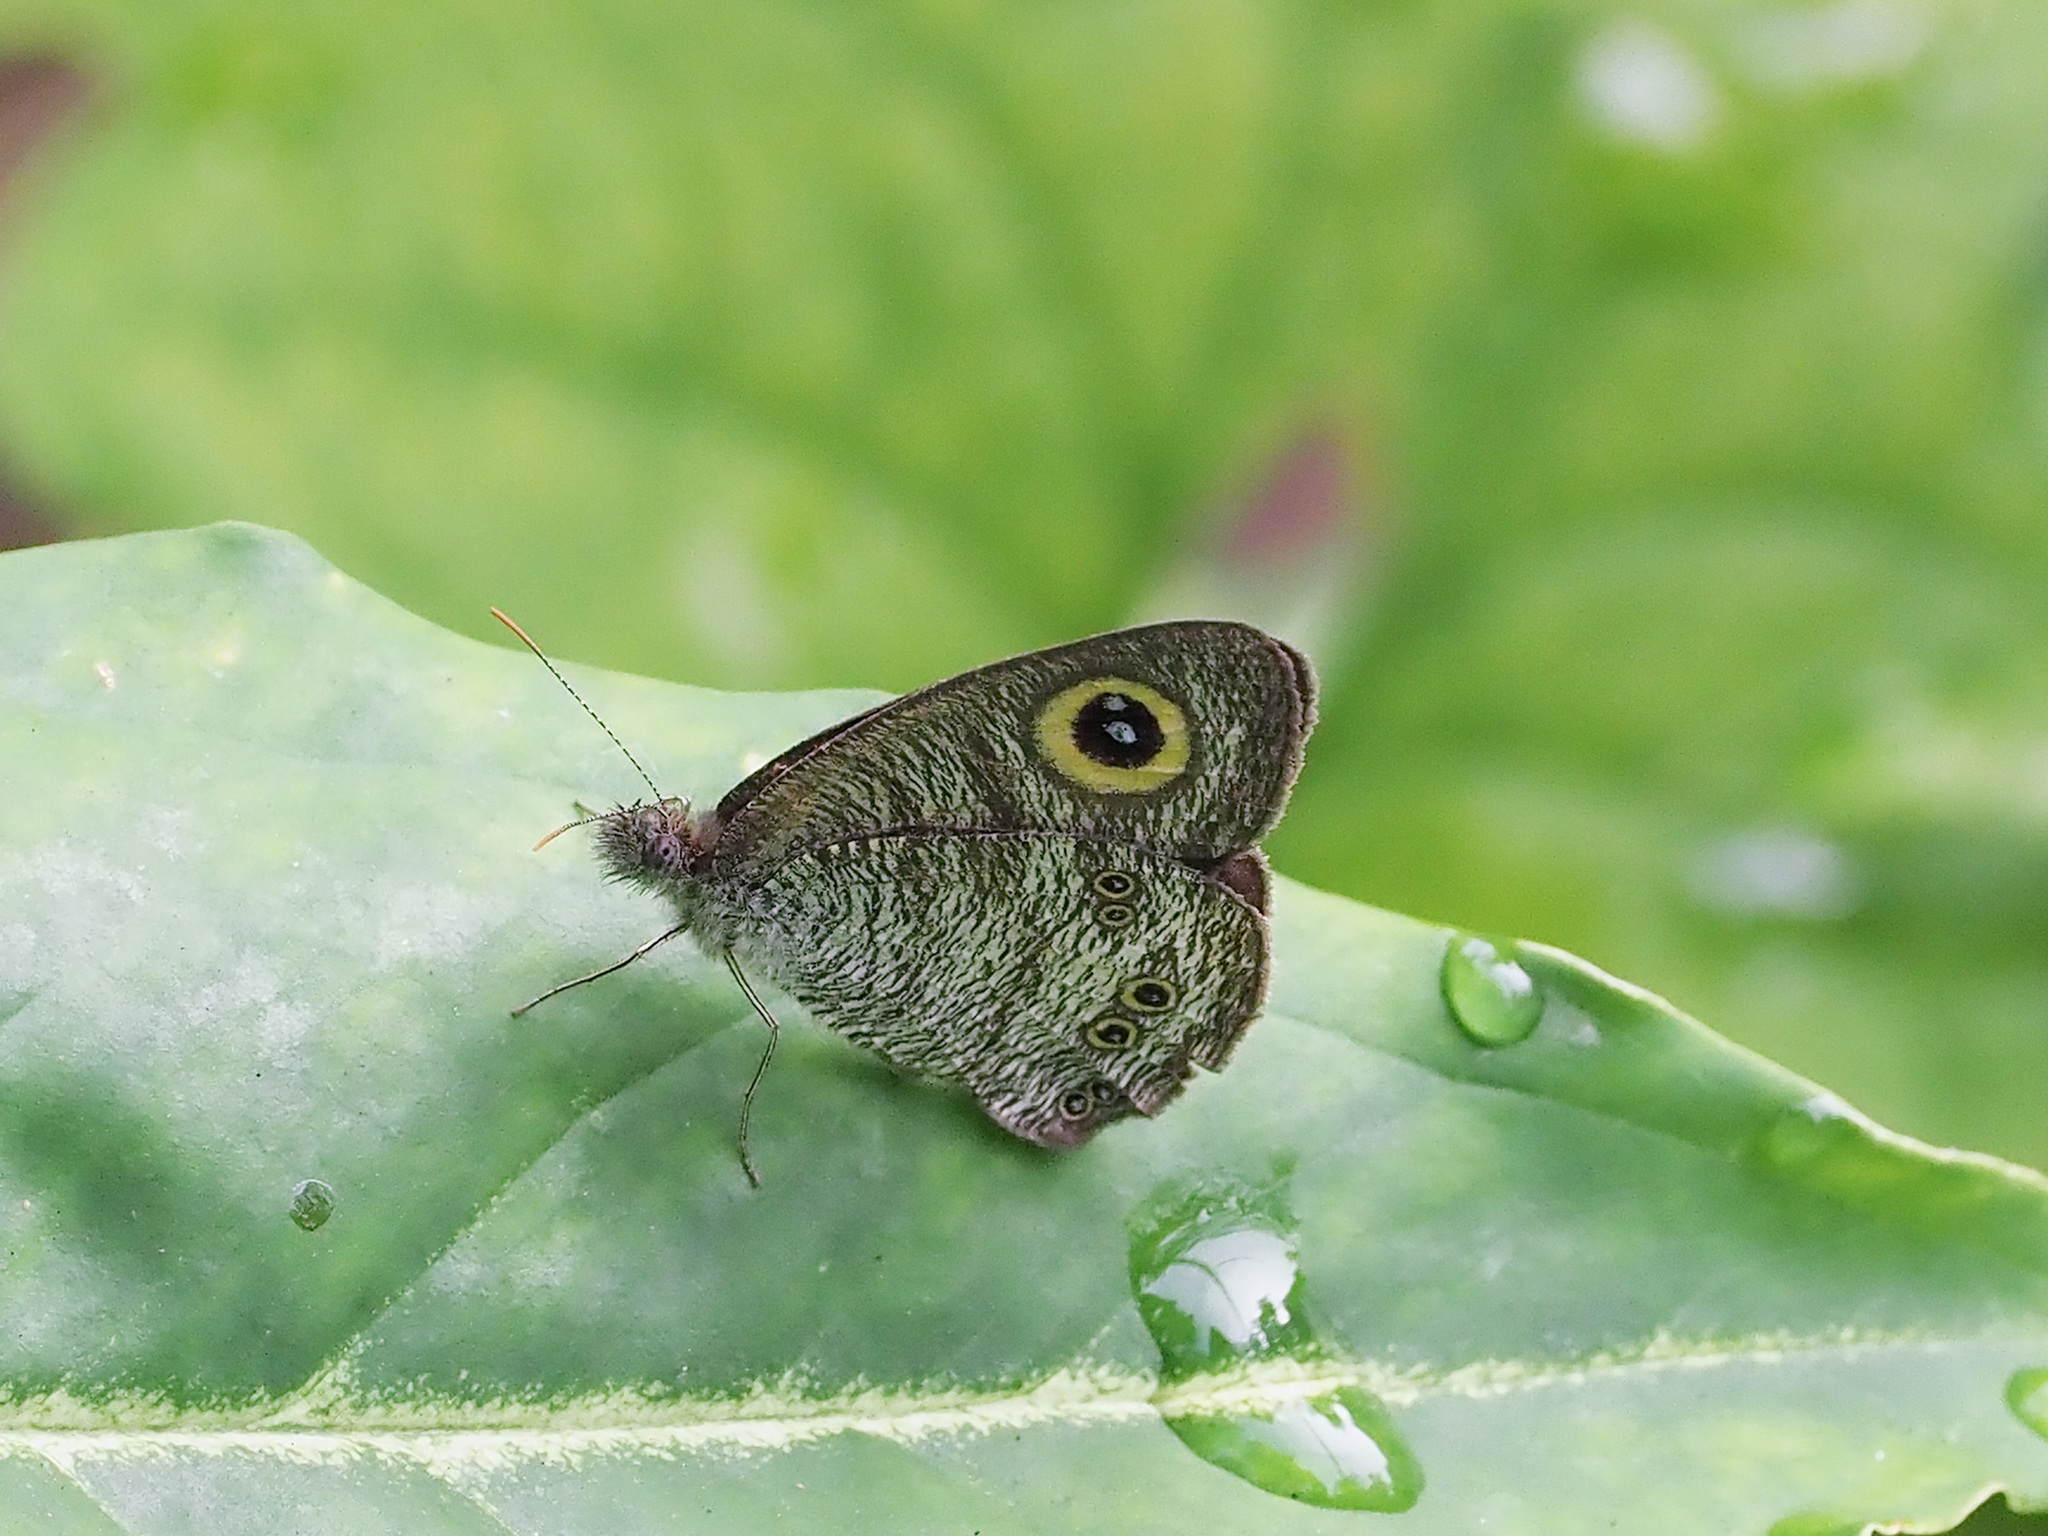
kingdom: Animalia
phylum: Arthropoda
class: Insecta
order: Lepidoptera
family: Nymphalidae
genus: Ypthima
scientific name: Ypthima baldus
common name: Common five-ring
